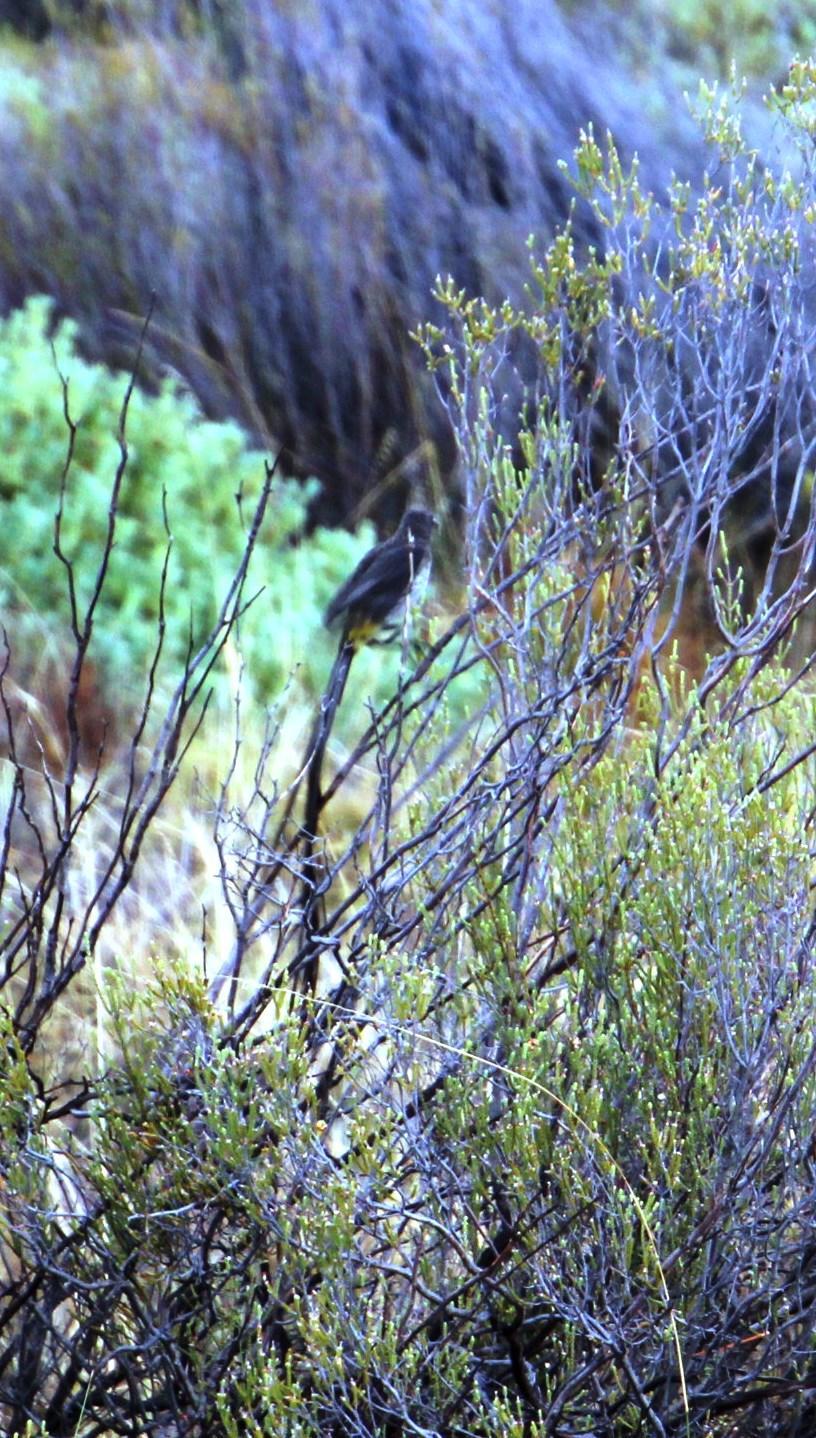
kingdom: Animalia
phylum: Chordata
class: Aves
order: Passeriformes
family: Promeropidae
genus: Promerops
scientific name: Promerops cafer
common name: Cape sugarbird
